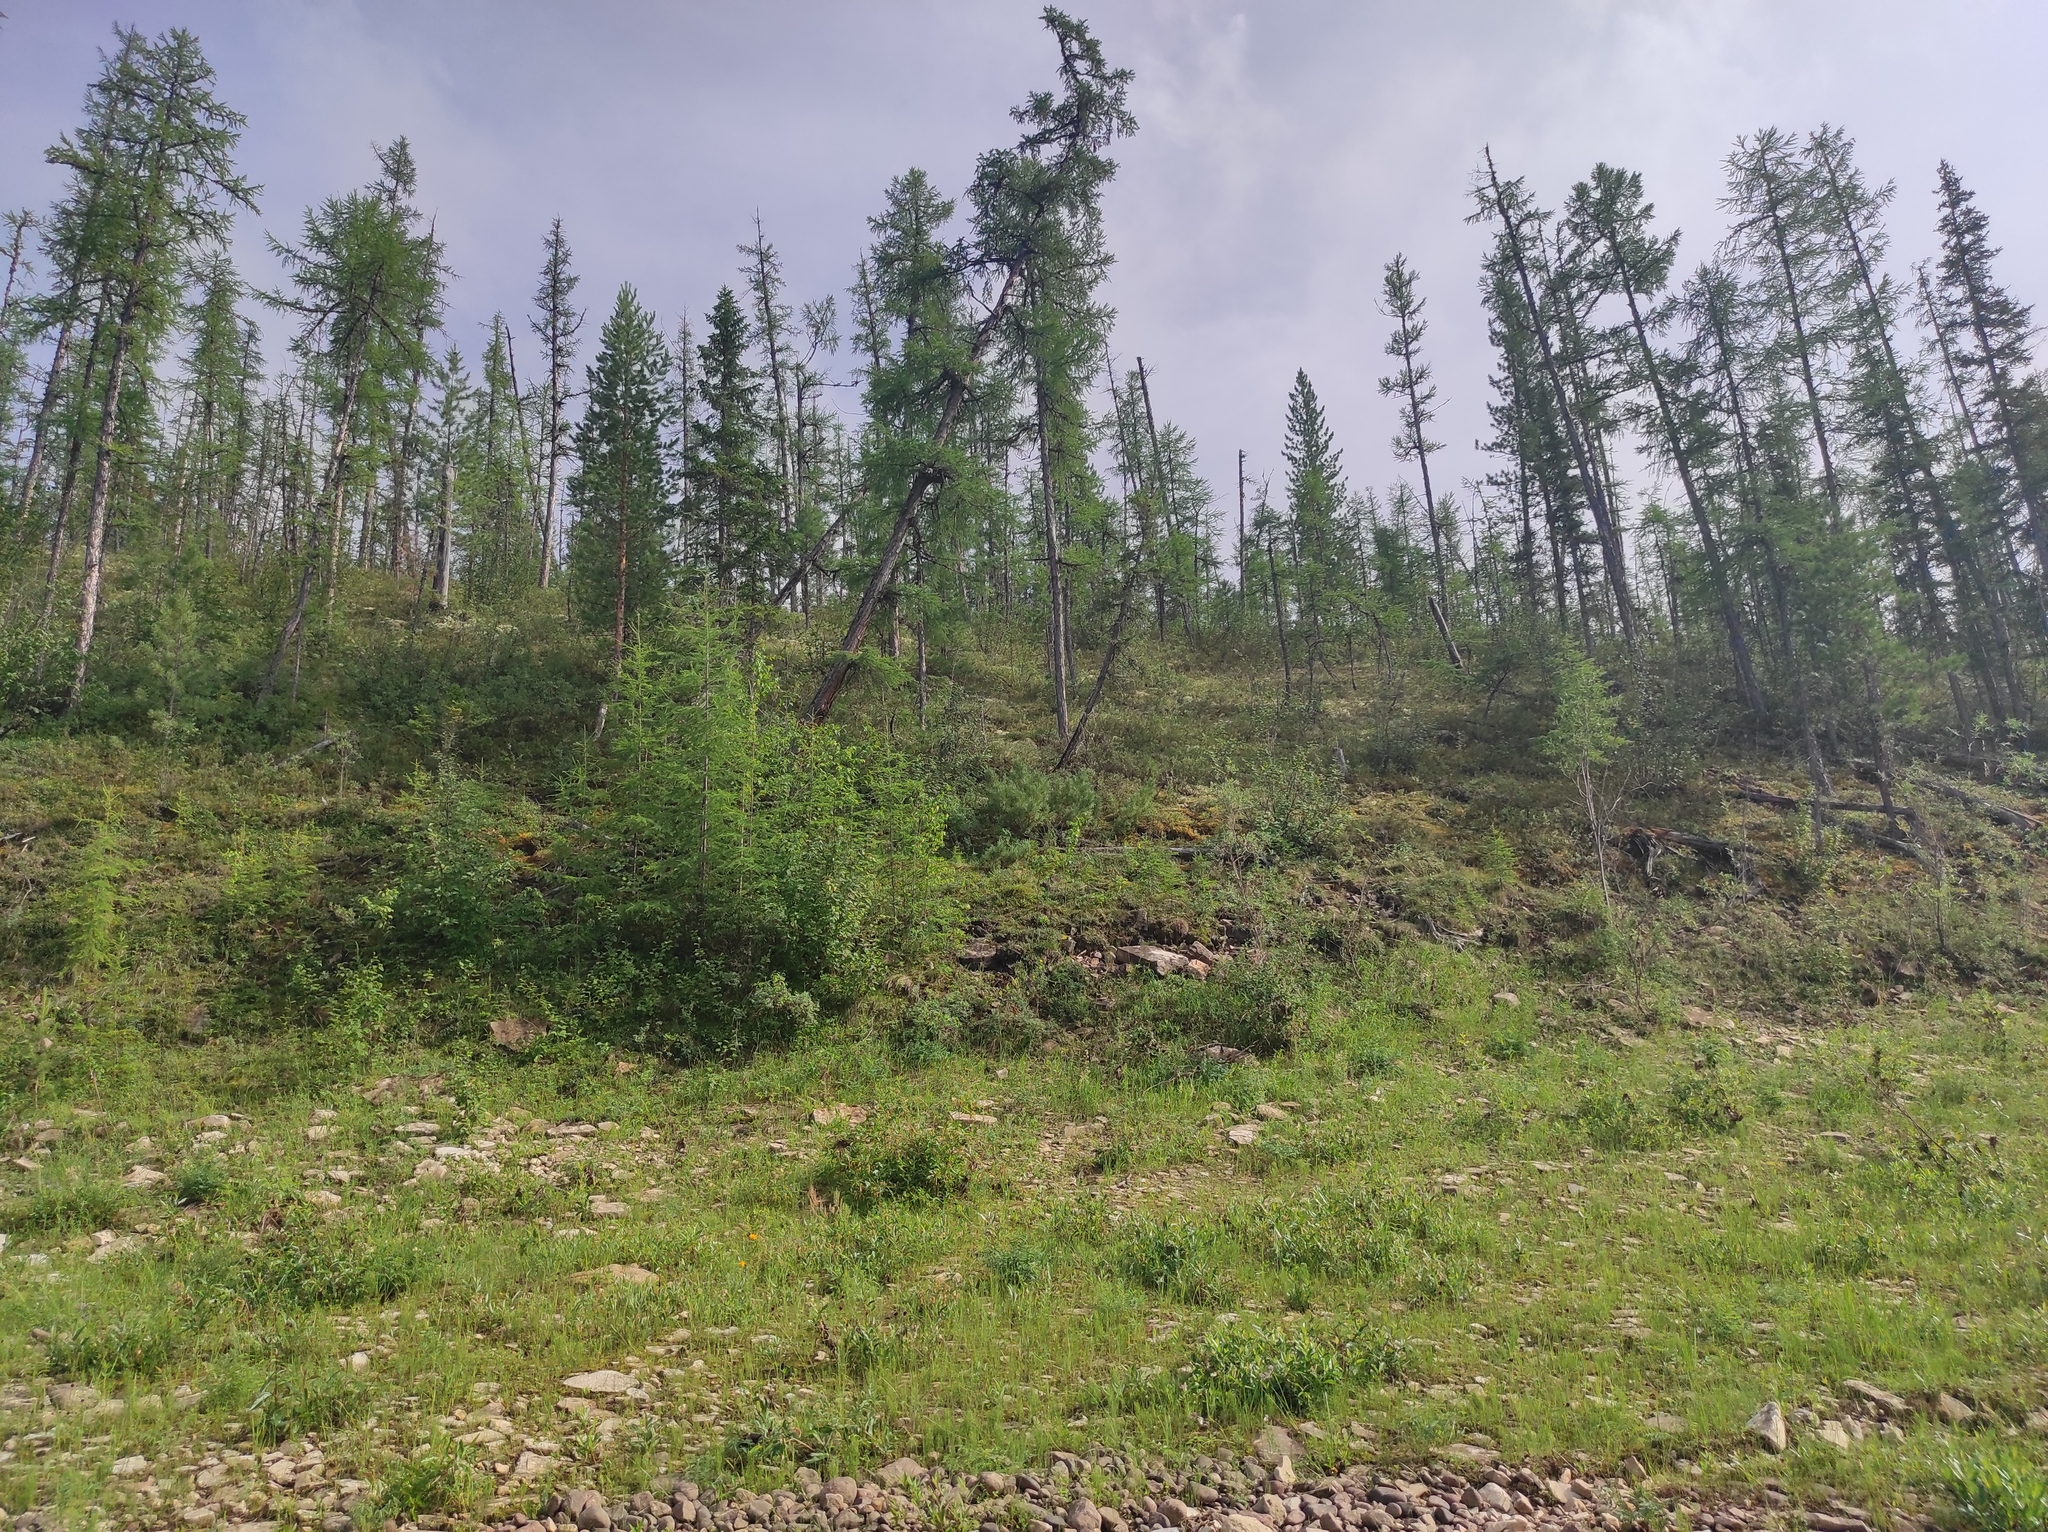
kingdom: Plantae
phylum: Tracheophyta
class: Pinopsida
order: Pinales
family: Pinaceae
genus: Larix
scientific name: Larix gmelinii
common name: Dahurian larch
